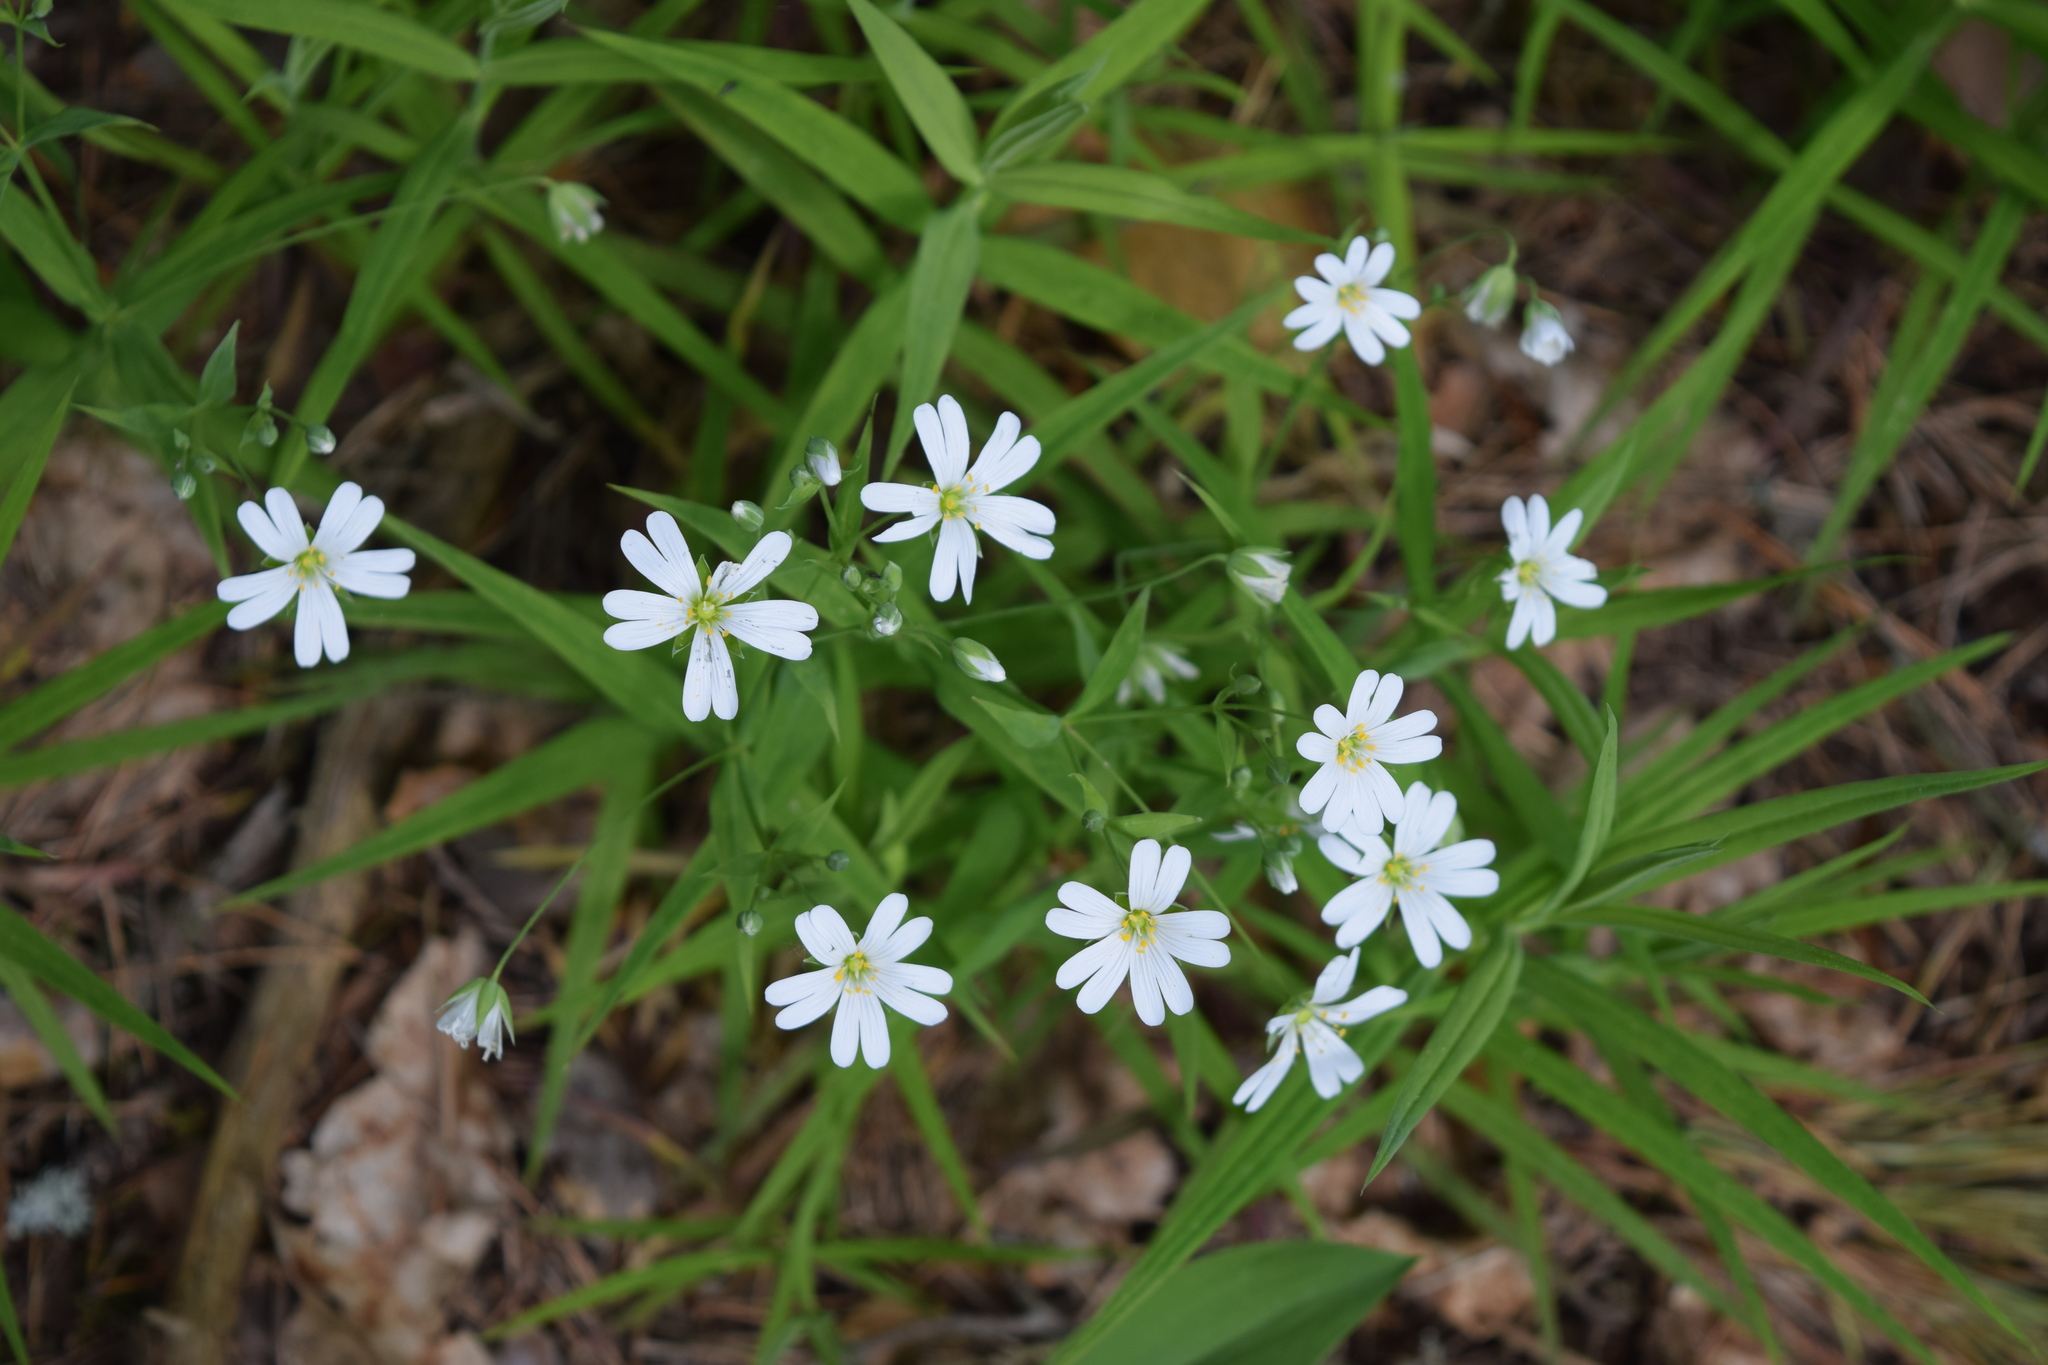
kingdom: Plantae
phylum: Tracheophyta
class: Magnoliopsida
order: Caryophyllales
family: Caryophyllaceae
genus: Rabelera
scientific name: Rabelera holostea
